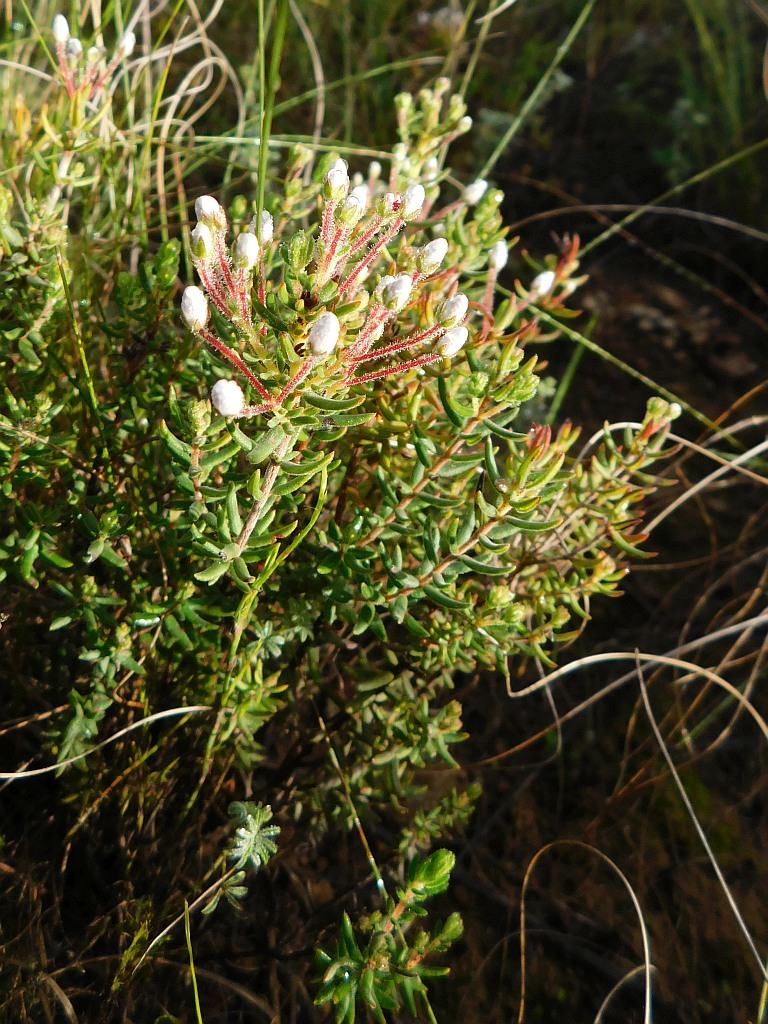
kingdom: Plantae
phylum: Tracheophyta
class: Magnoliopsida
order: Ericales
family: Ericaceae
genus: Erica
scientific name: Erica perlata
